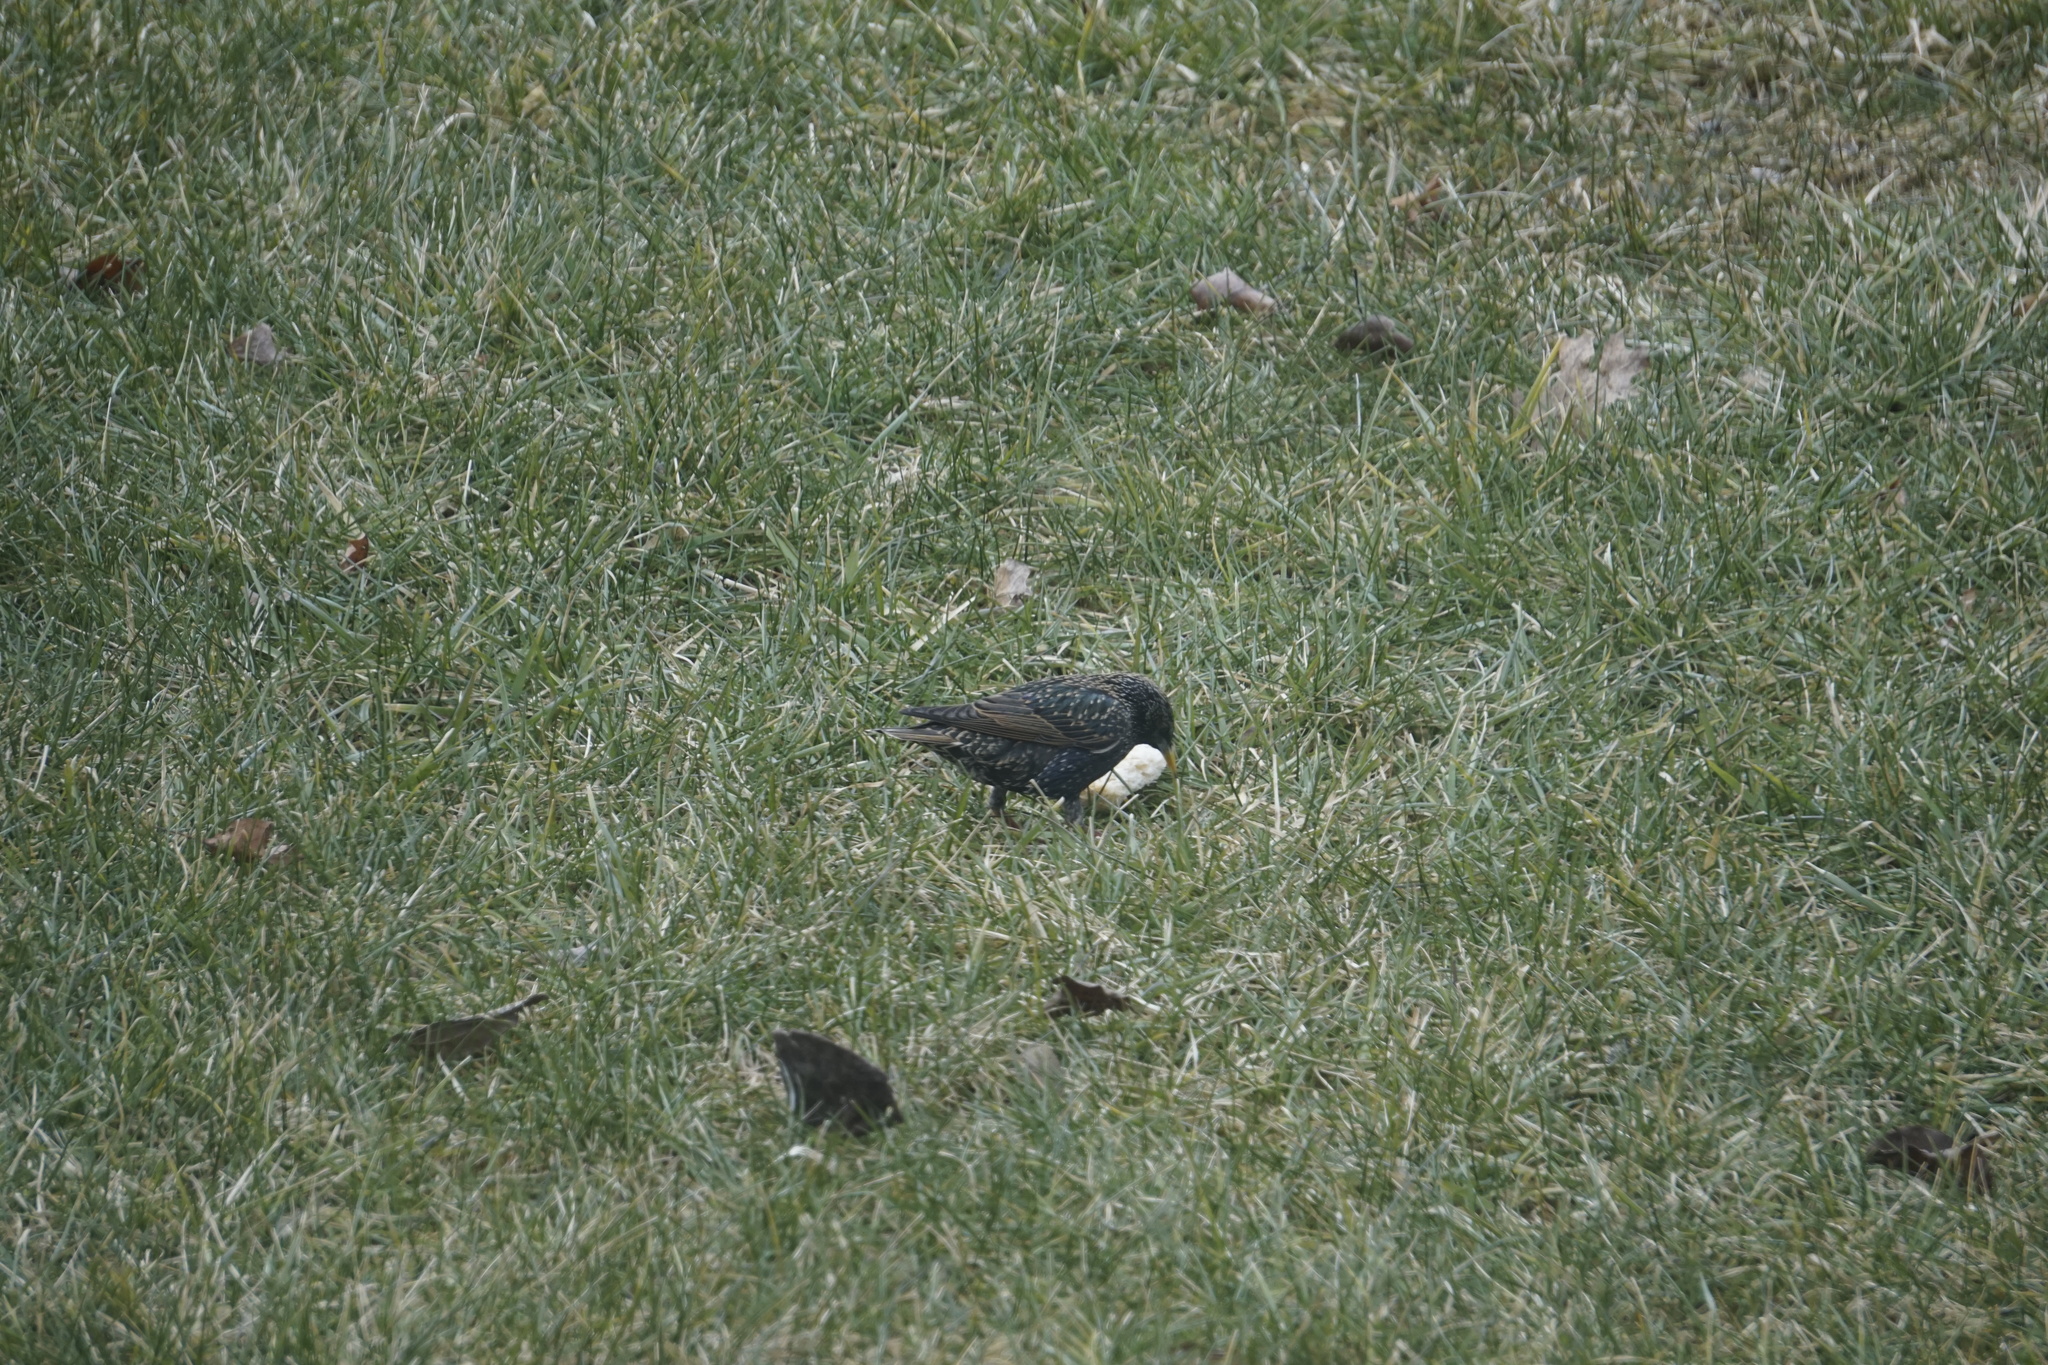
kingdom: Animalia
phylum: Chordata
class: Aves
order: Passeriformes
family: Sturnidae
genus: Sturnus
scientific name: Sturnus vulgaris
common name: Common starling
